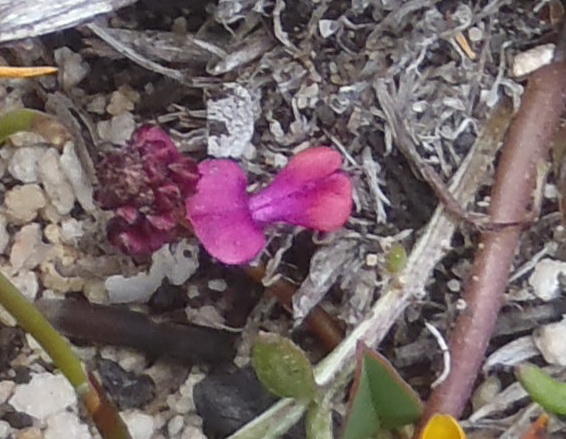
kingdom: Plantae
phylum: Tracheophyta
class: Magnoliopsida
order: Fabales
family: Fabaceae
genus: Indigofera
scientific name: Indigofera
